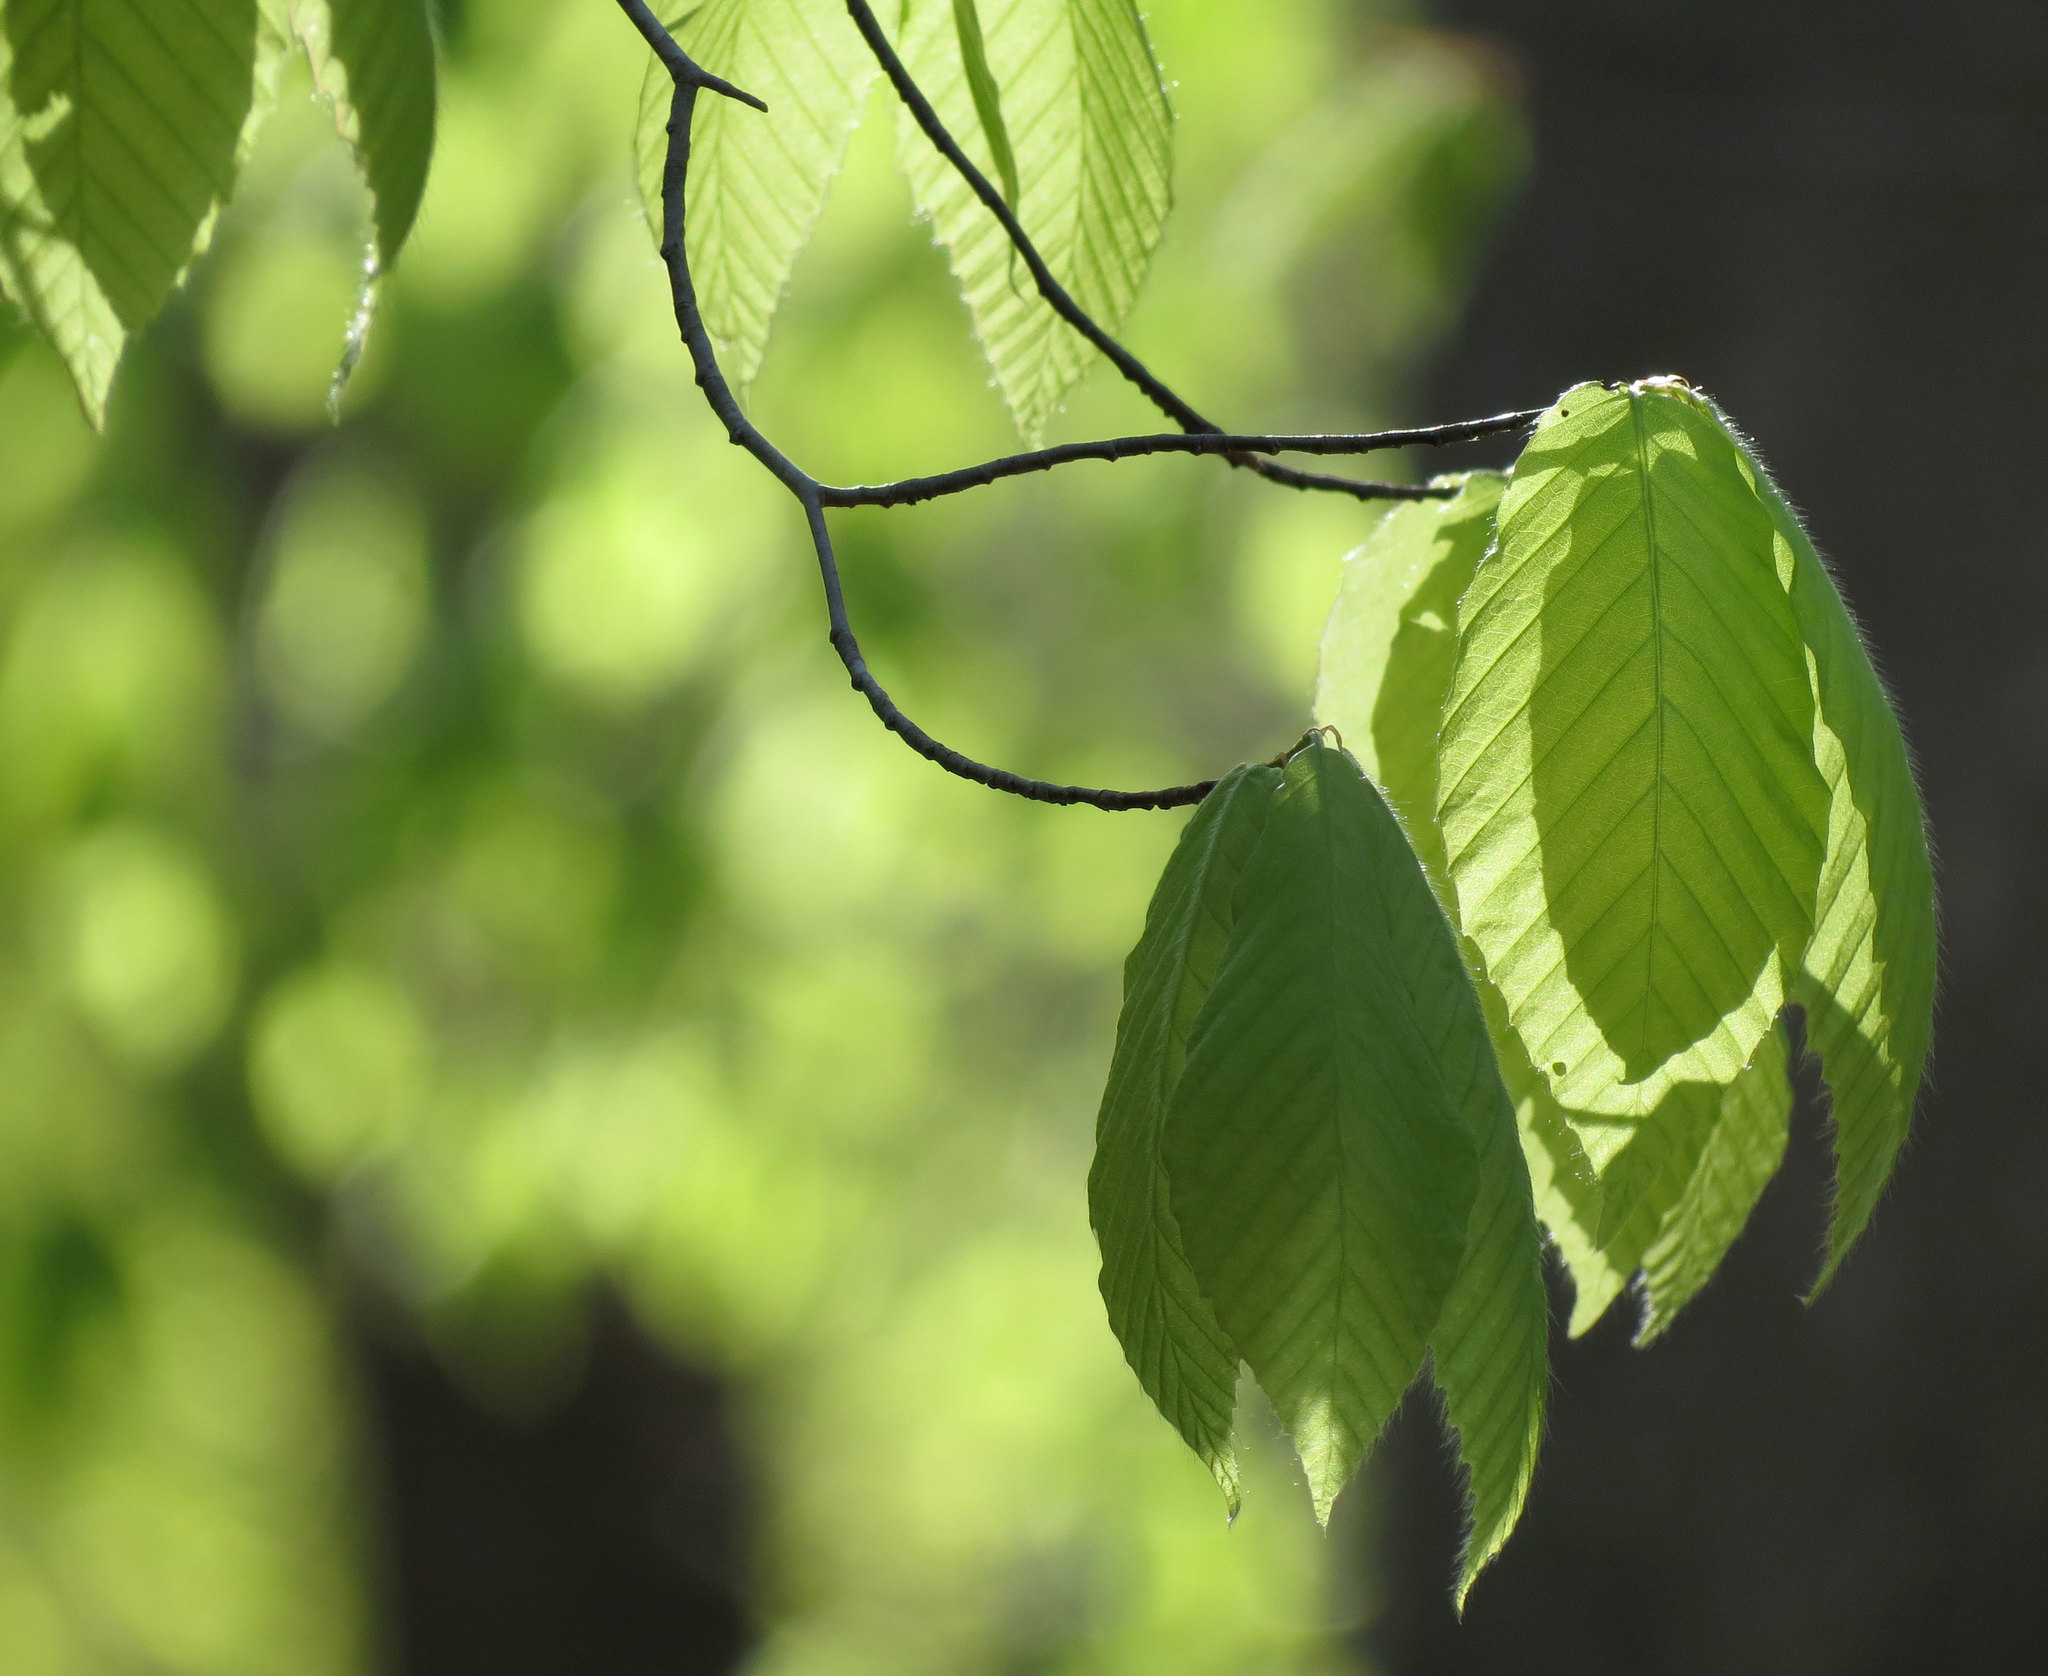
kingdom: Plantae
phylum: Tracheophyta
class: Magnoliopsida
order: Fagales
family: Fagaceae
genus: Fagus
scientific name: Fagus grandifolia
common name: American beech
